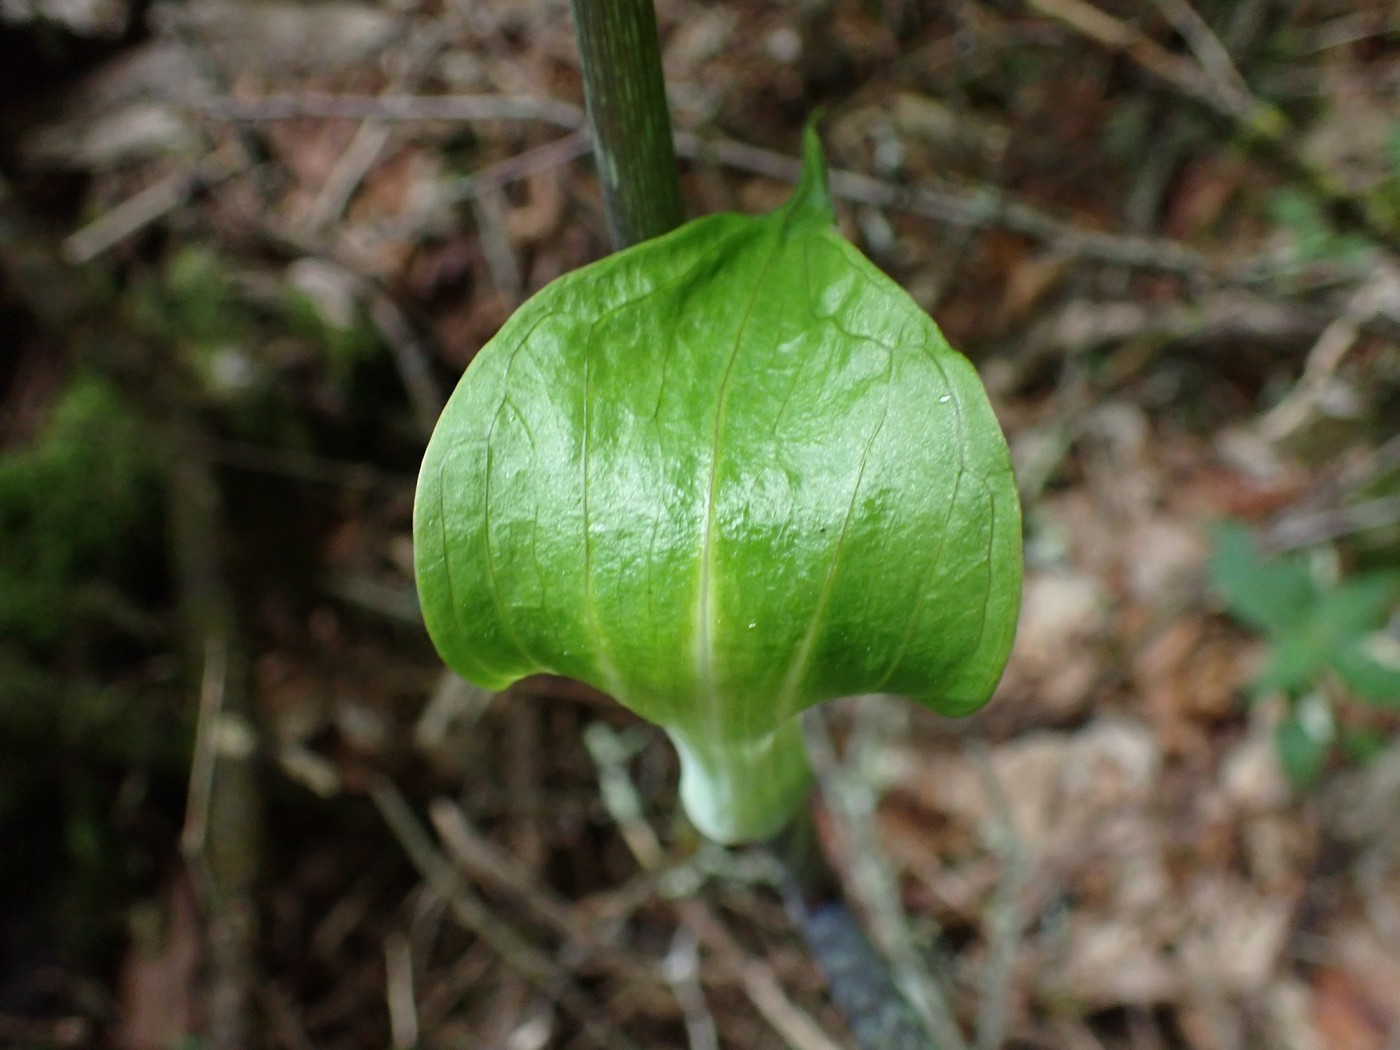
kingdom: Plantae
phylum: Tracheophyta
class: Liliopsida
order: Alismatales
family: Araceae
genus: Arisaema
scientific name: Arisaema quinatum
